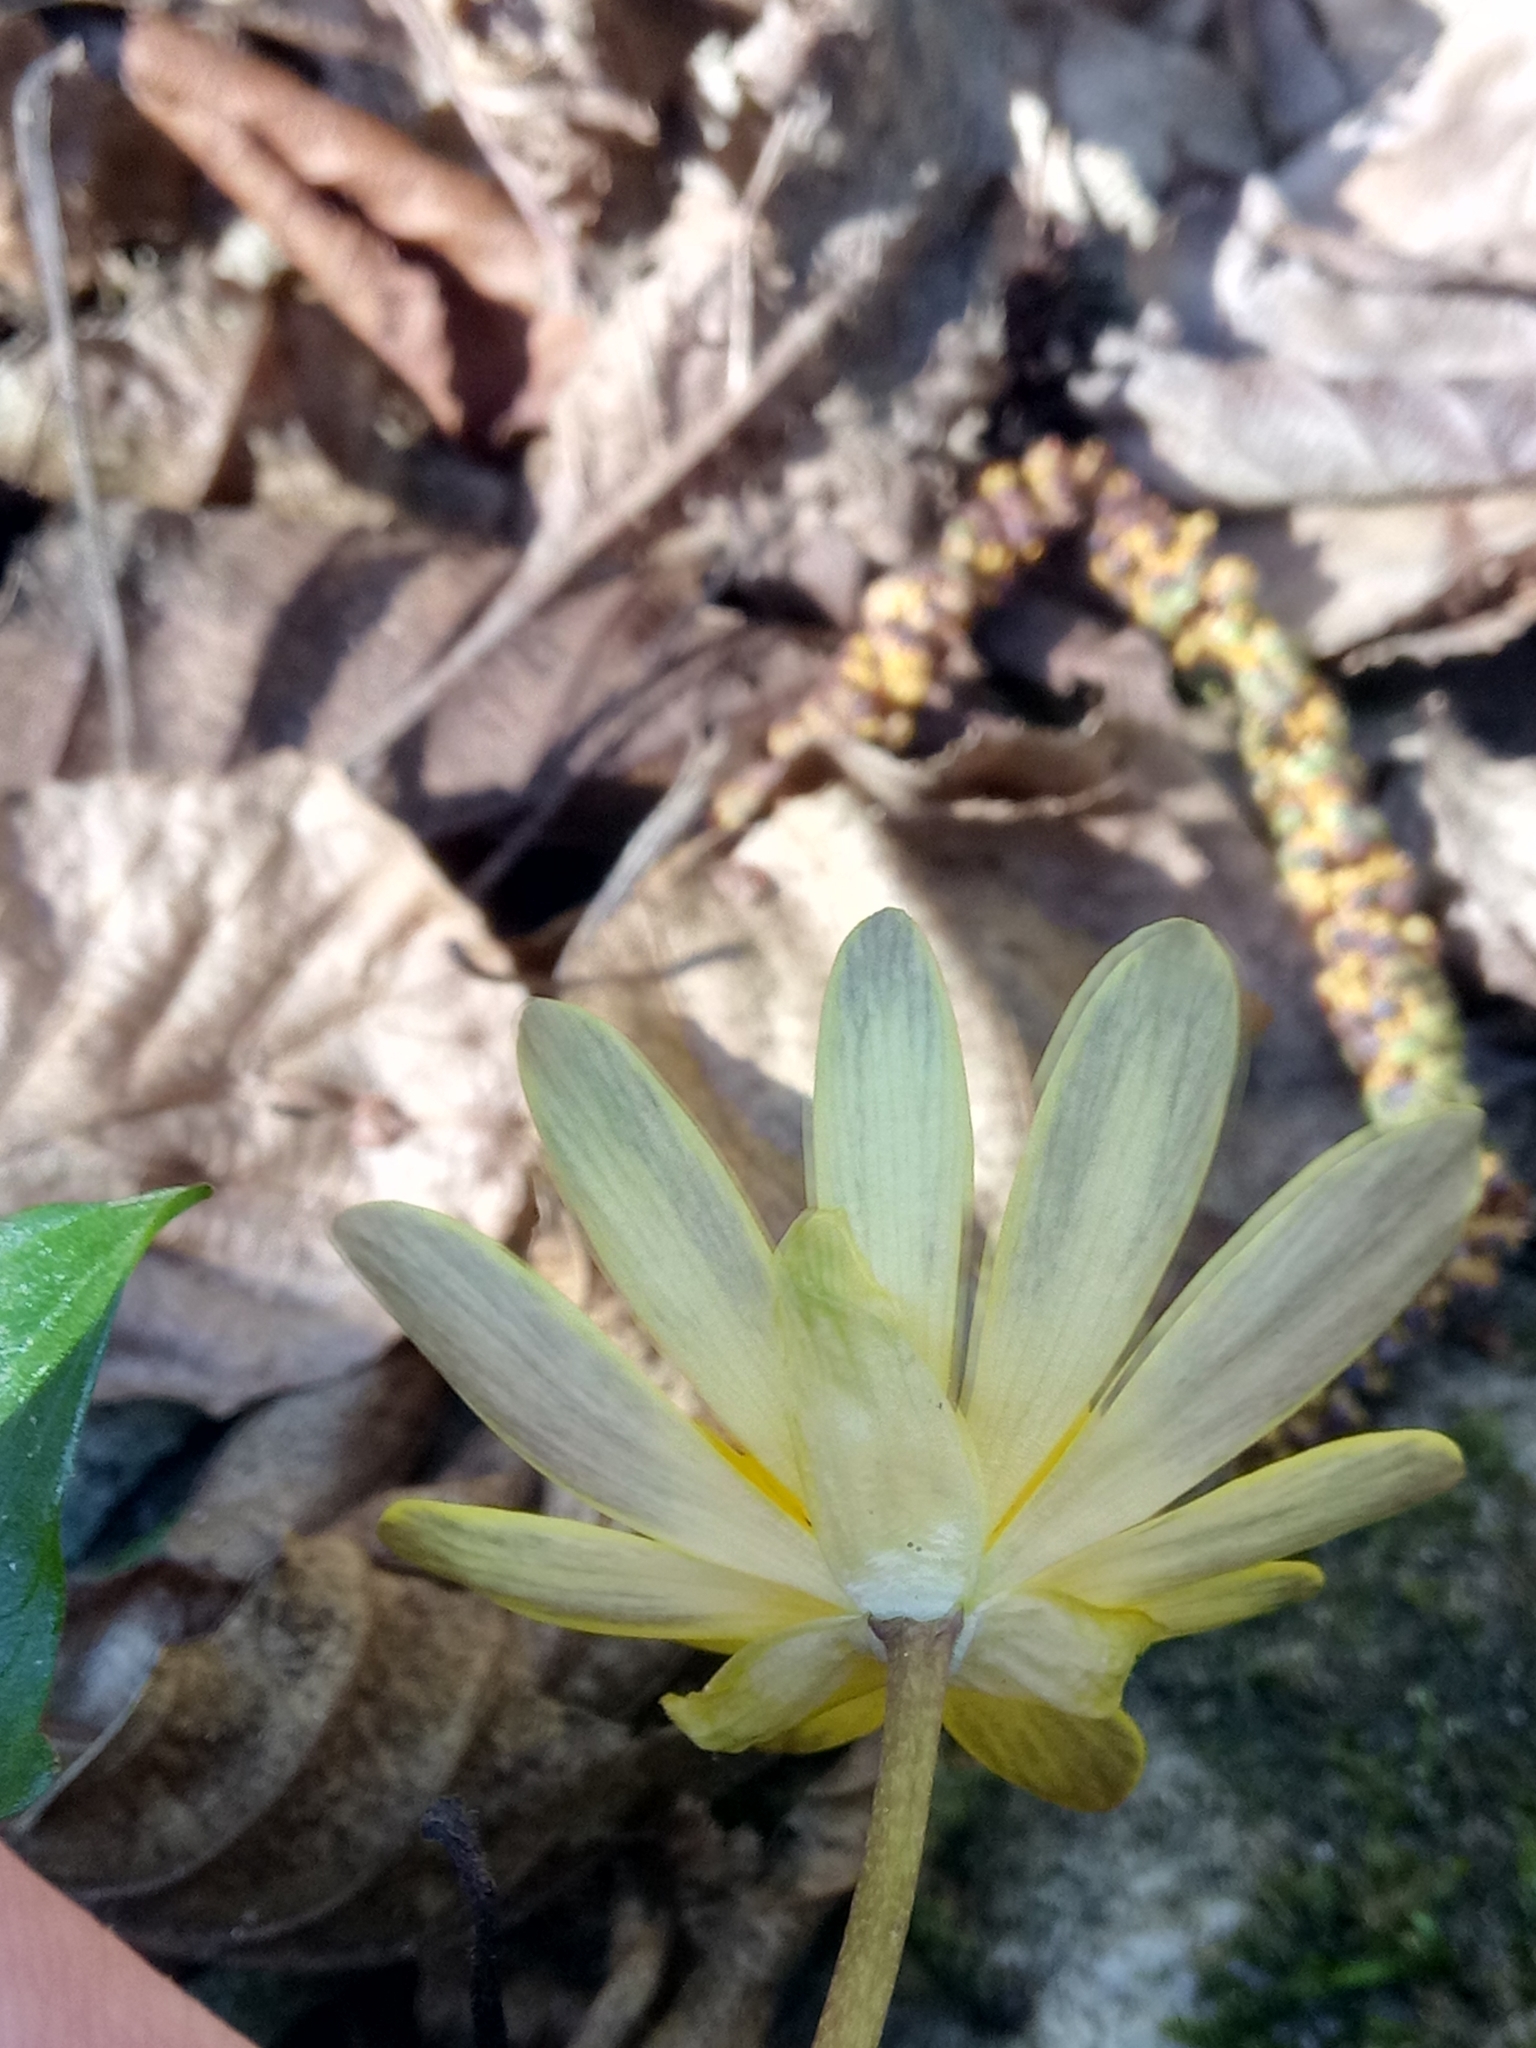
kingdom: Plantae
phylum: Tracheophyta
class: Magnoliopsida
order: Ranunculales
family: Ranunculaceae
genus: Ficaria
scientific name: Ficaria verna
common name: Lesser celandine
